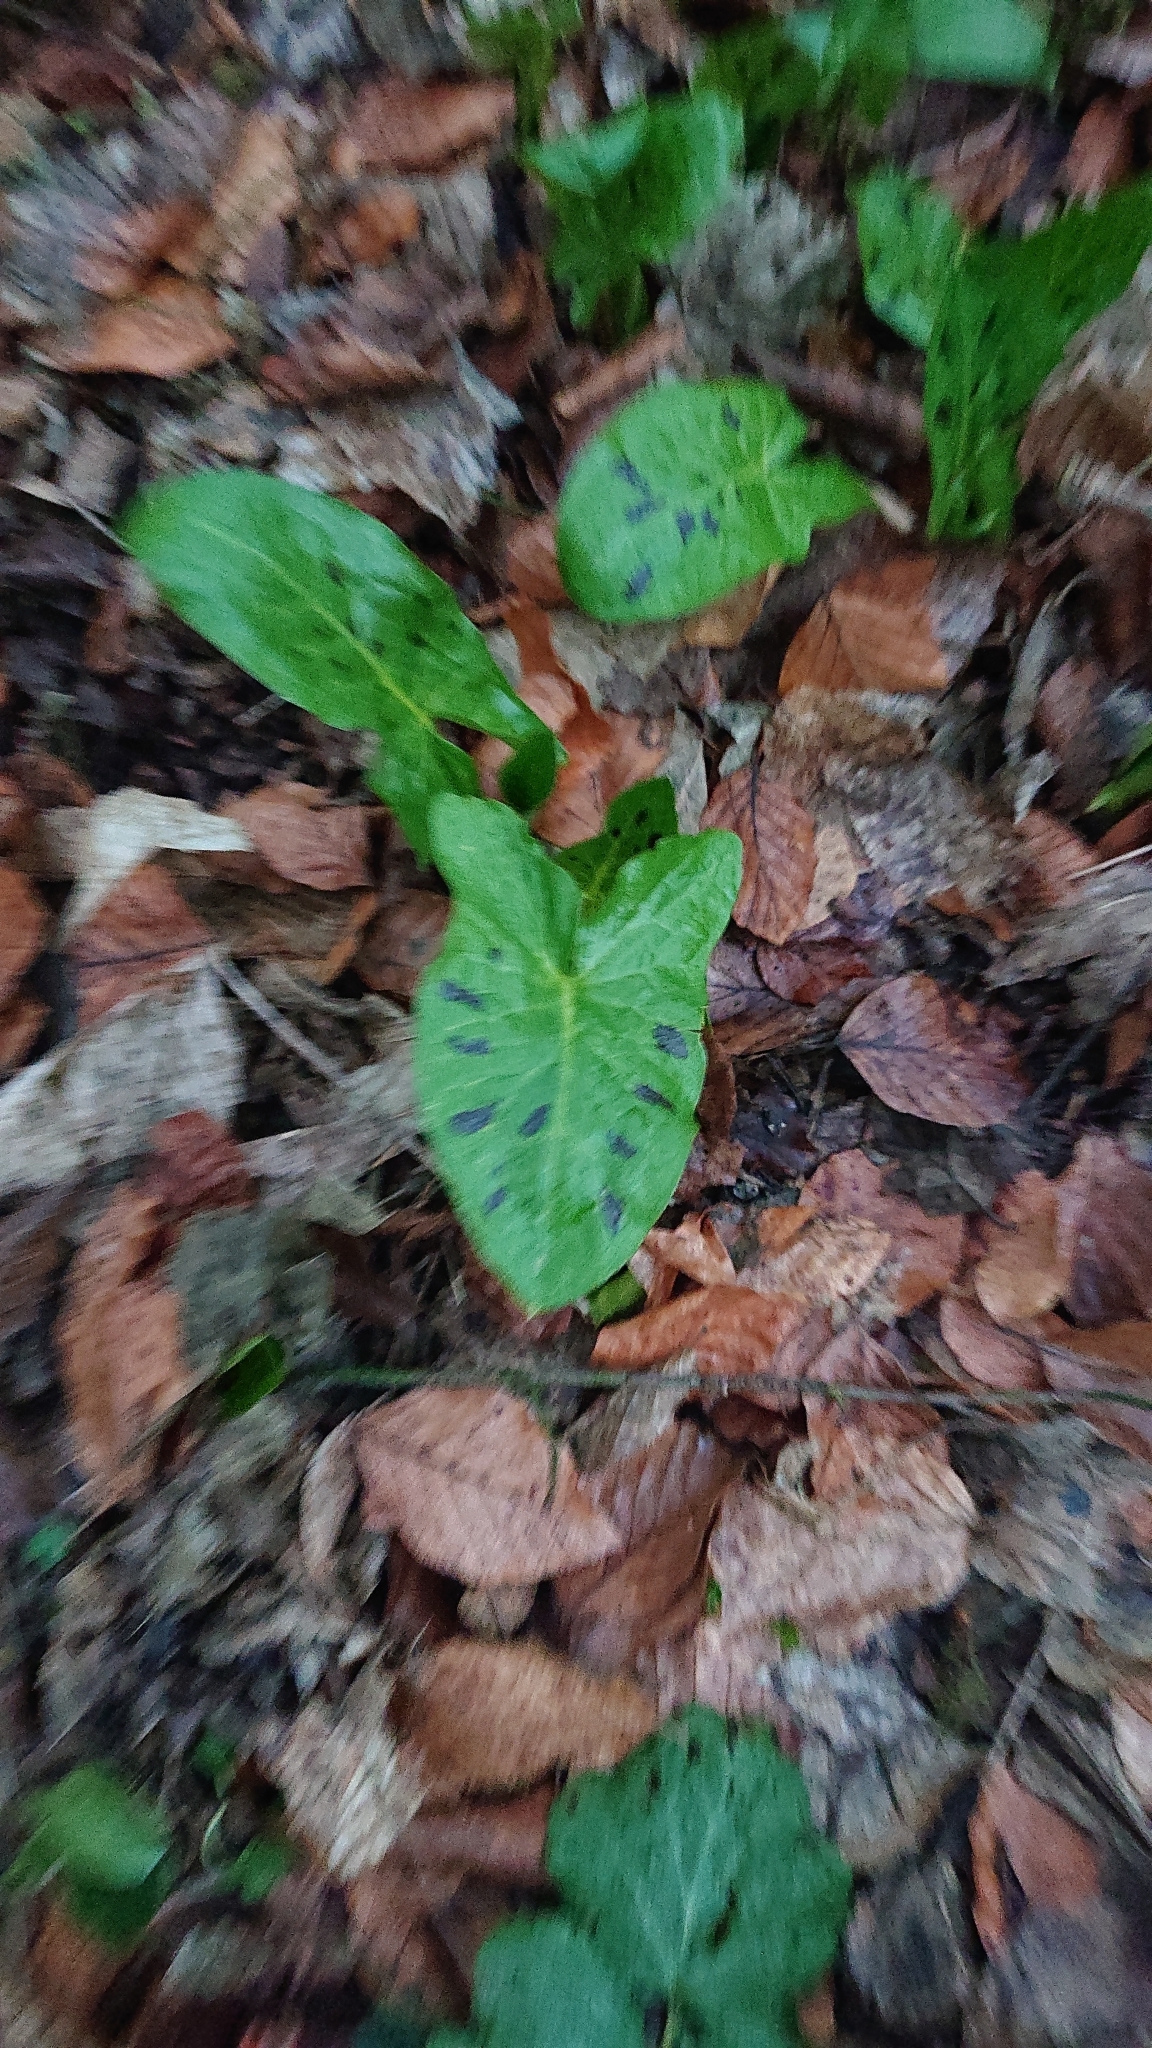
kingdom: Plantae
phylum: Tracheophyta
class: Liliopsida
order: Alismatales
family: Araceae
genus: Arum
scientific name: Arum maculatum
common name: Lords-and-ladies
